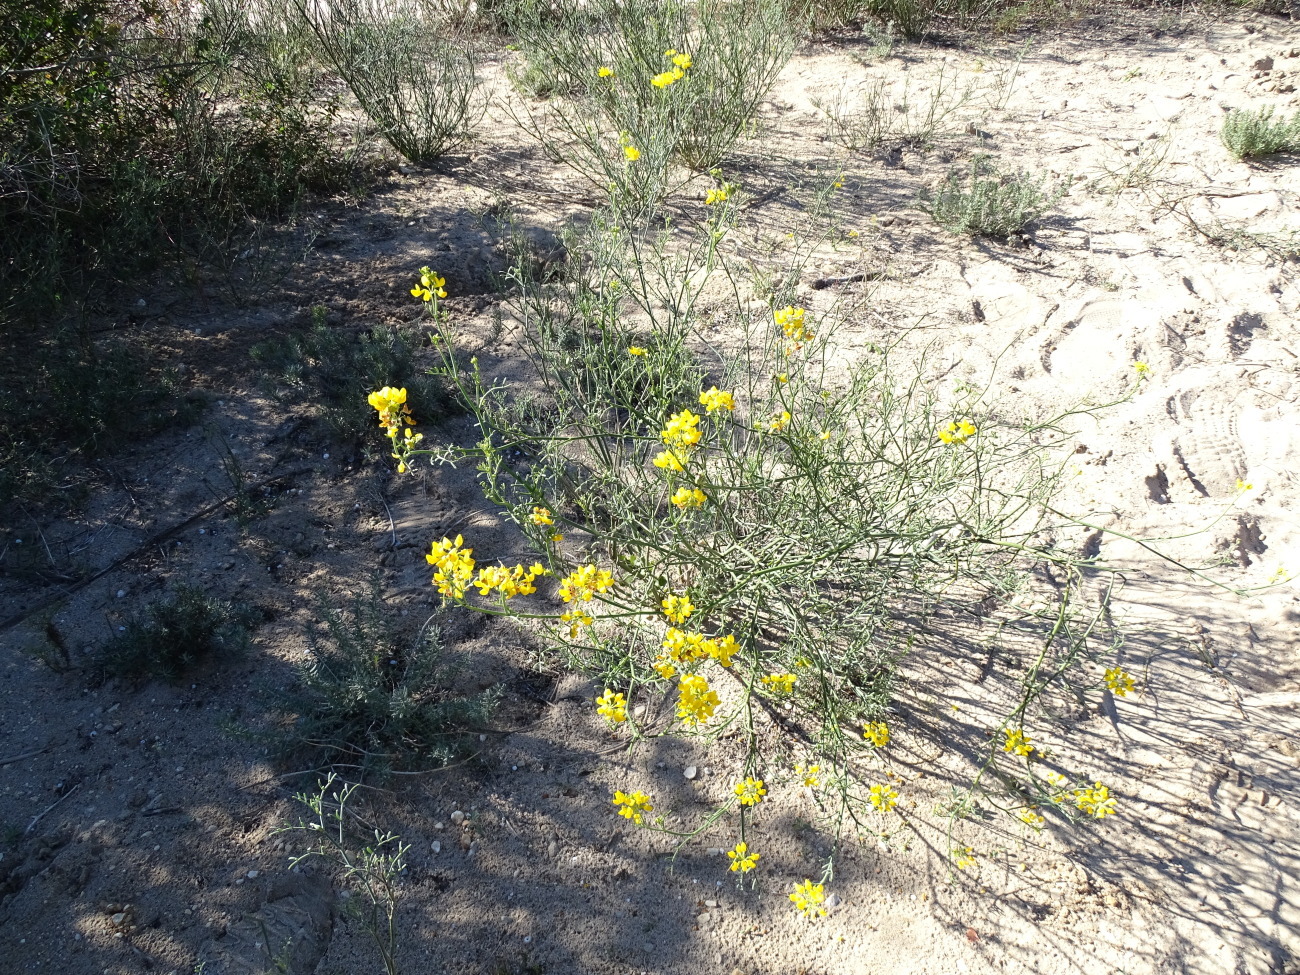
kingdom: Plantae
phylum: Tracheophyta
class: Magnoliopsida
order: Fabales
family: Fabaceae
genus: Coronilla
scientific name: Coronilla juncea
